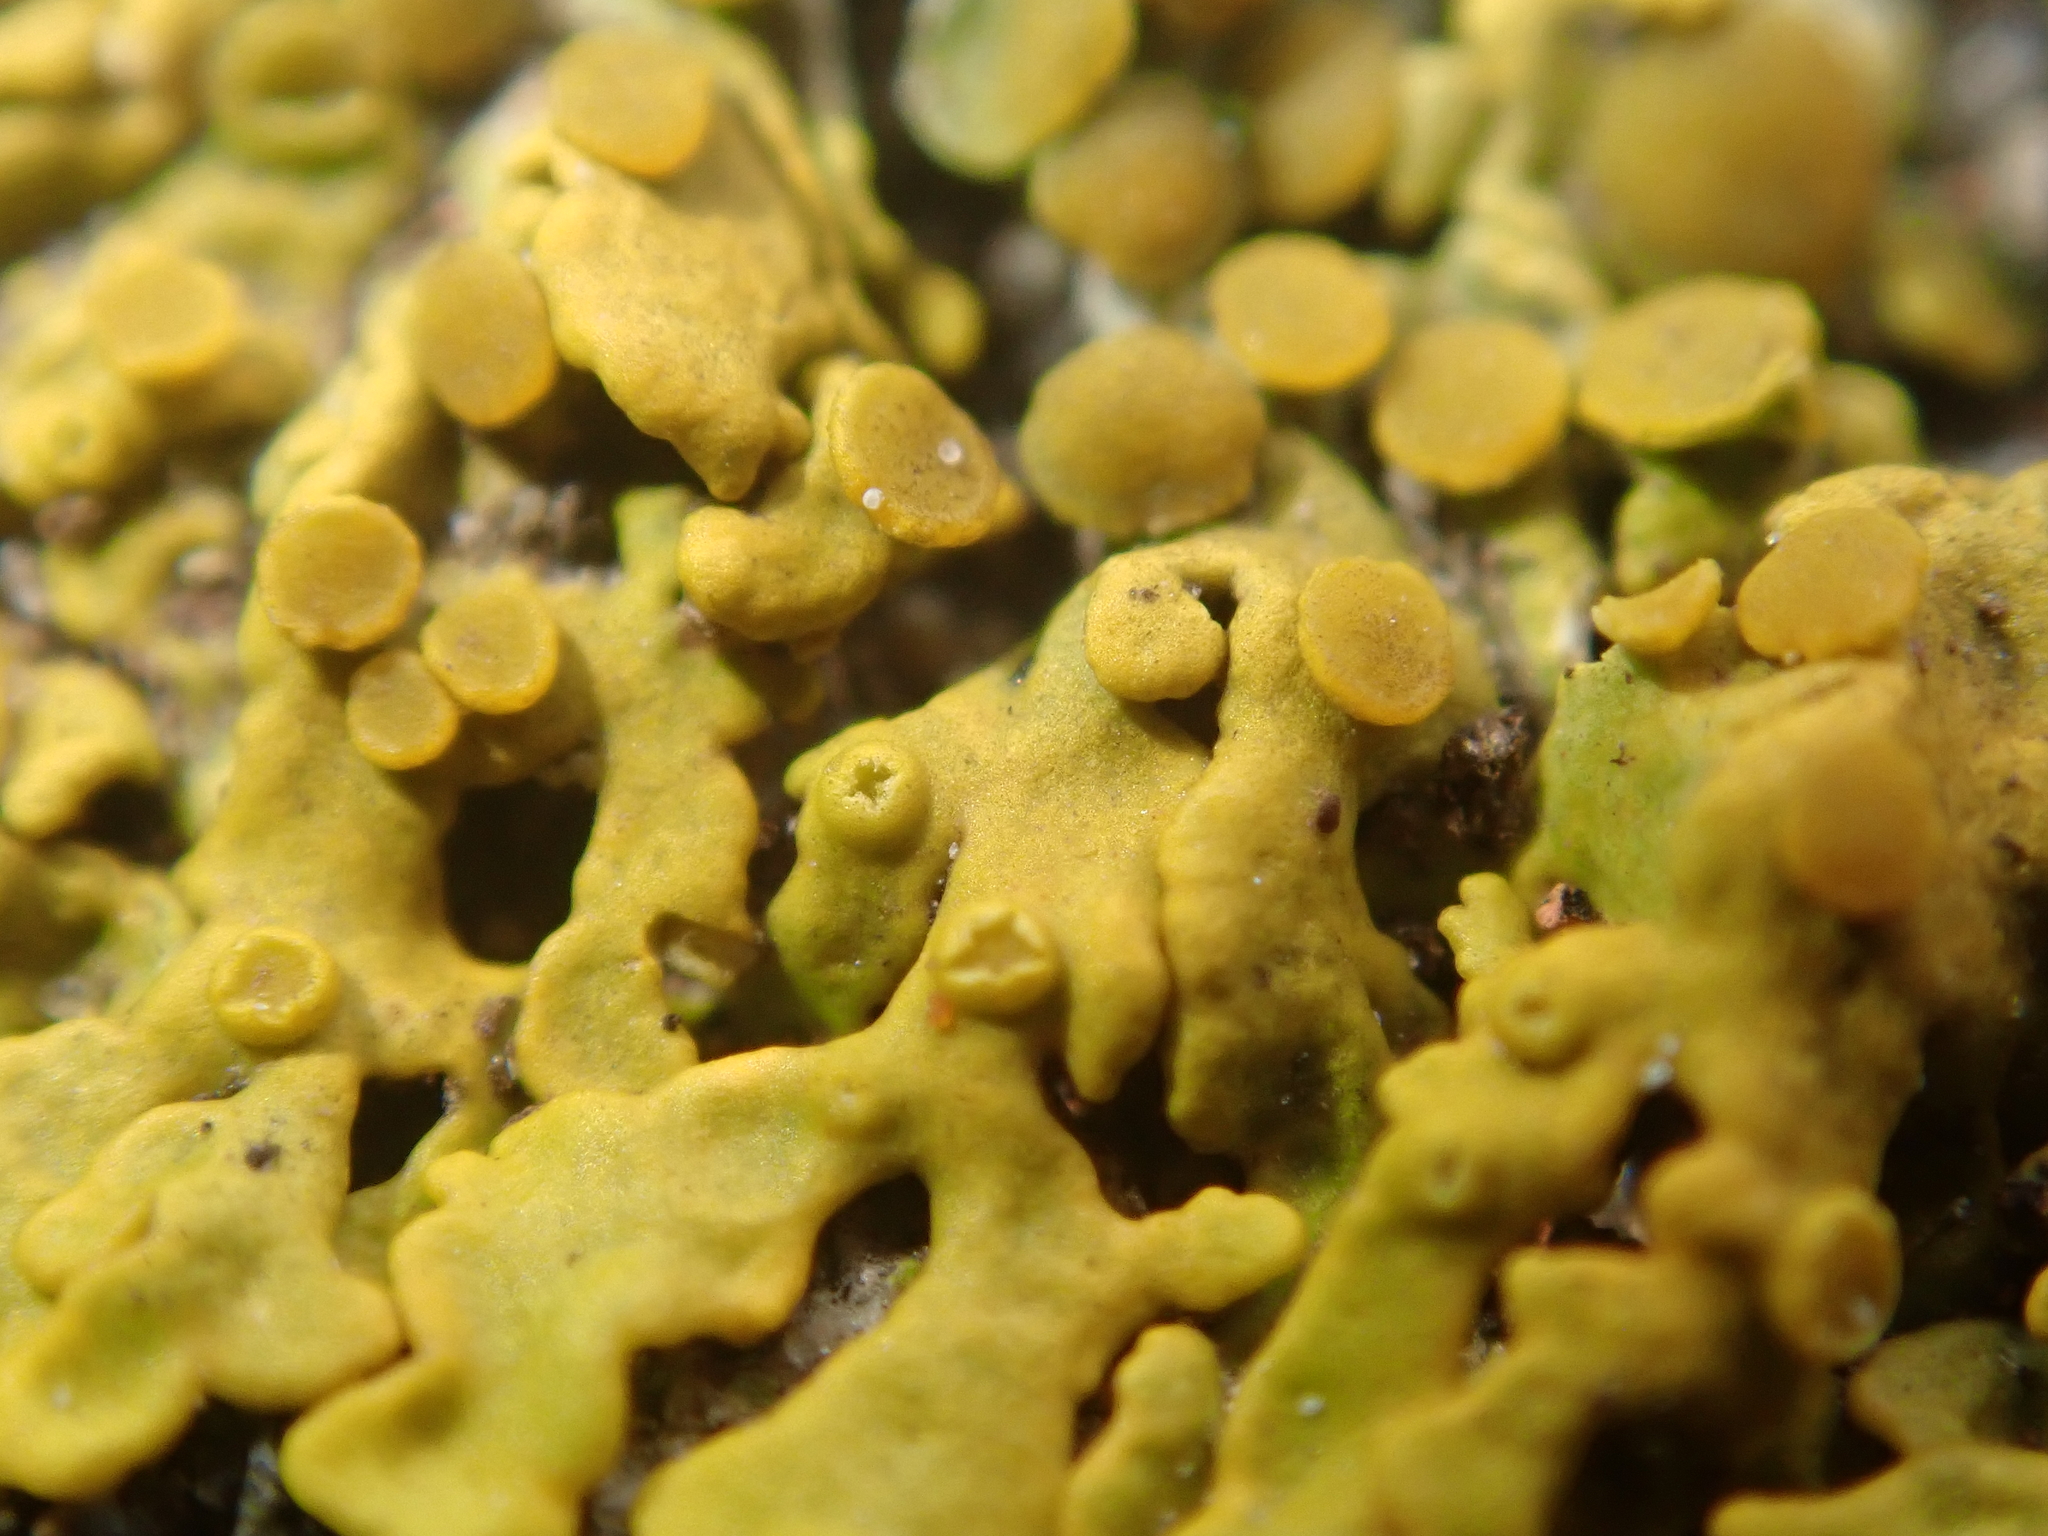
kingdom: Fungi
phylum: Ascomycota
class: Lecanoromycetes
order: Teloschistales
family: Teloschistaceae
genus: Xanthoria
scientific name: Xanthoria parietina
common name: Common orange lichen
